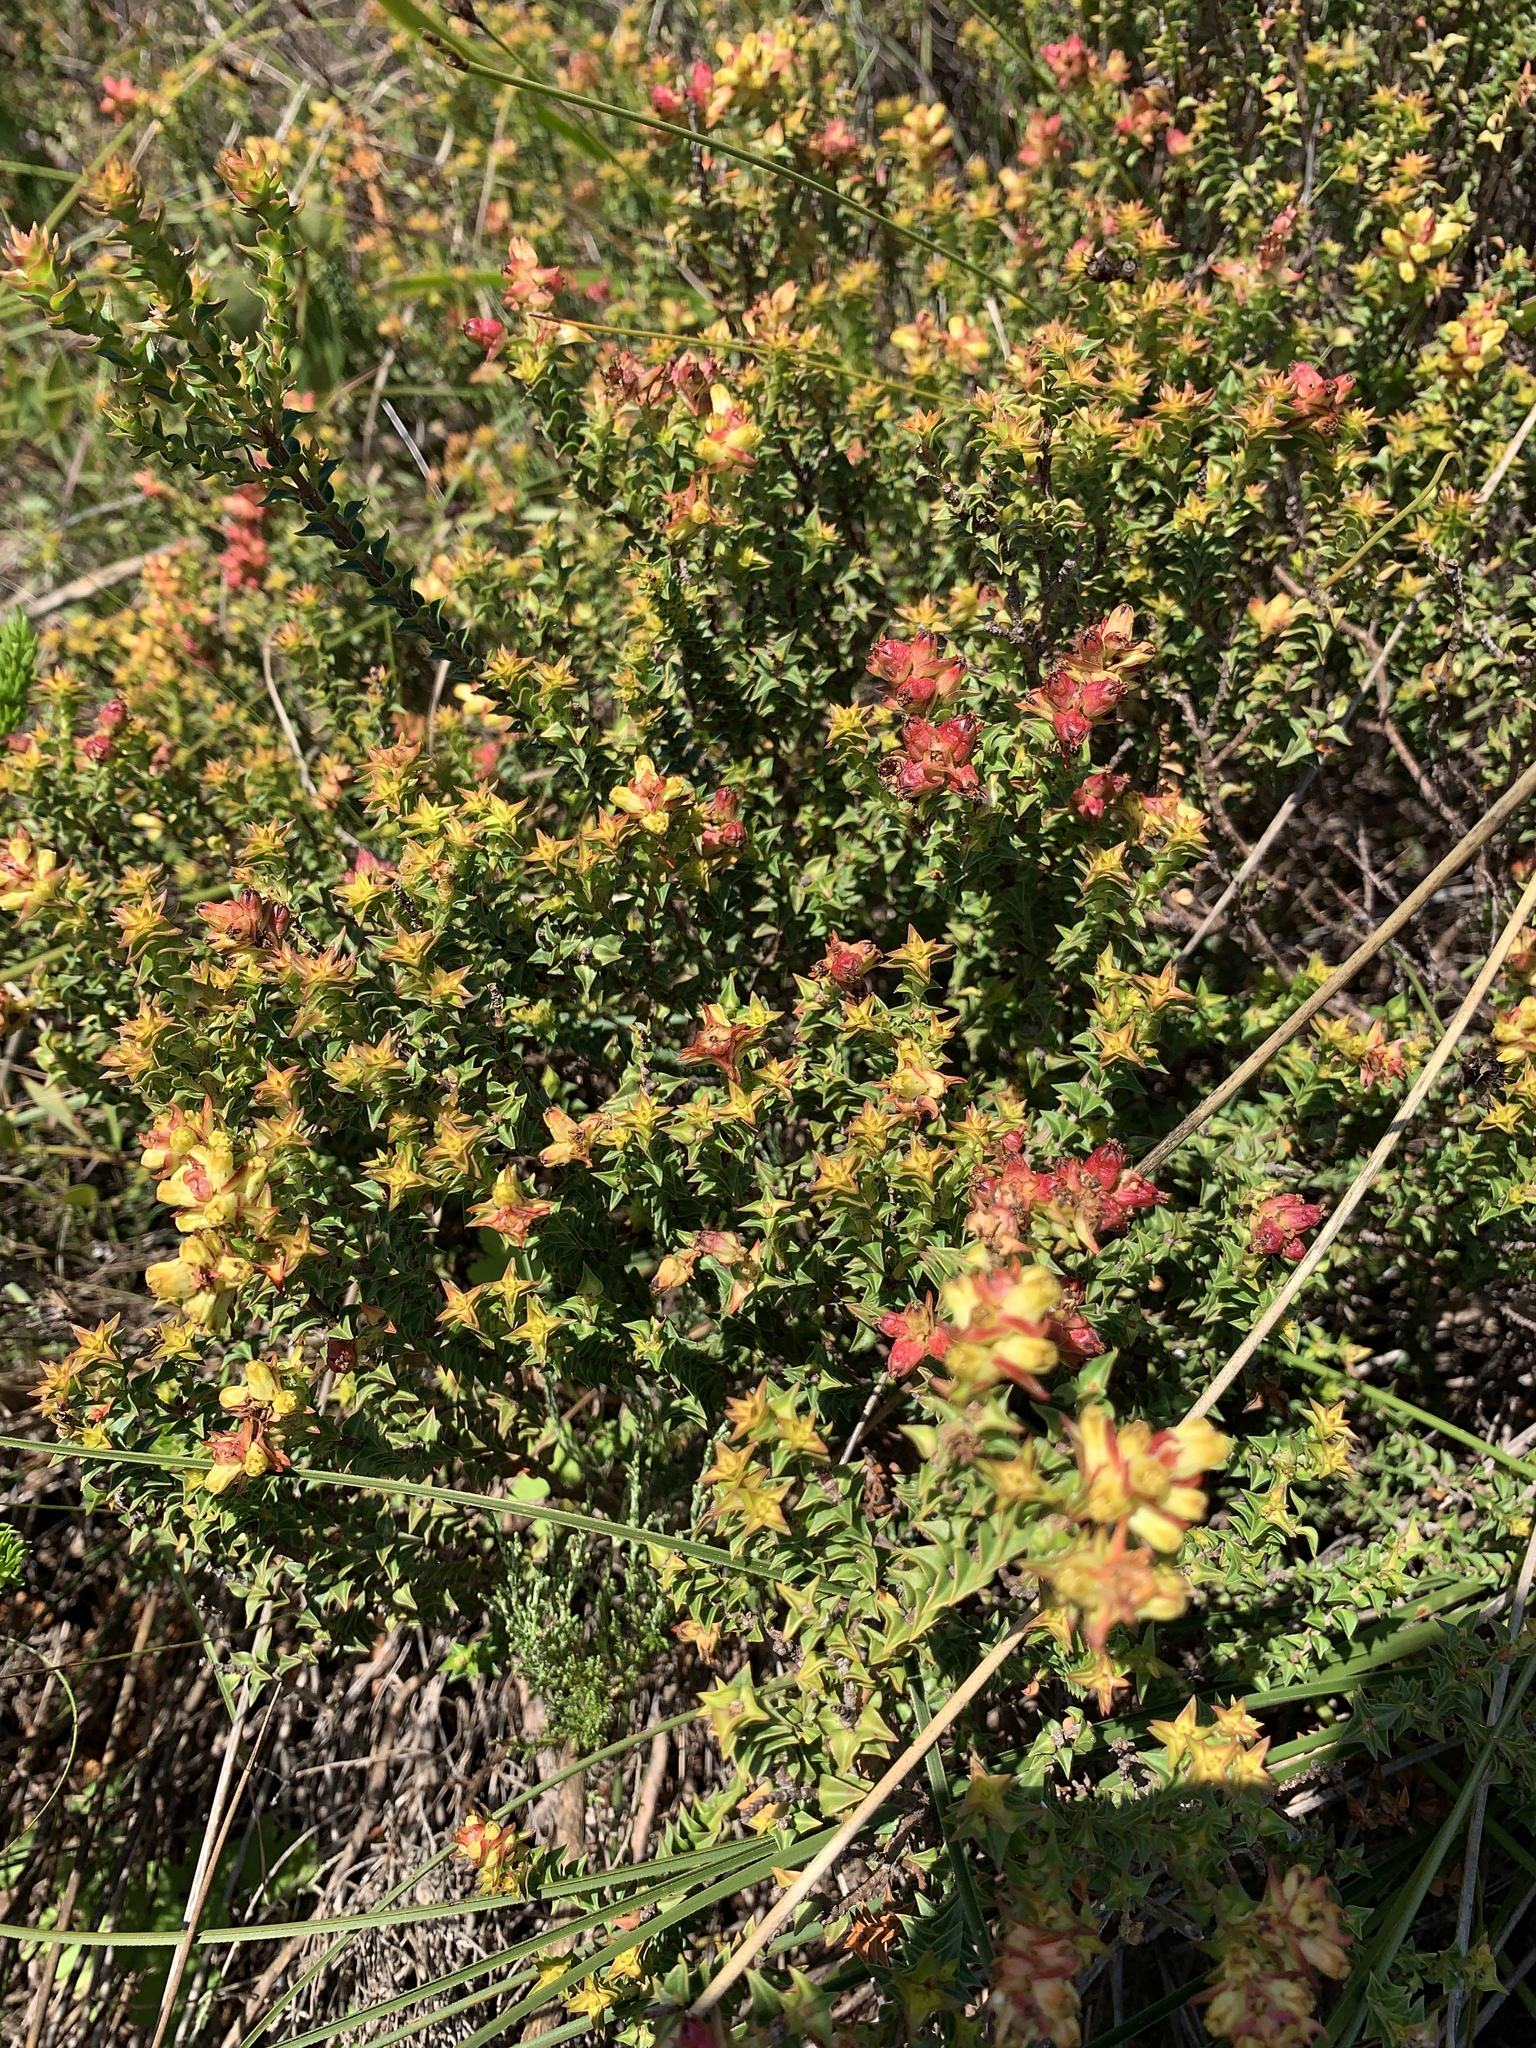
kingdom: Plantae
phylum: Tracheophyta
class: Magnoliopsida
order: Myrtales
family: Penaeaceae
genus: Penaea
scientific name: Penaea mucronata
